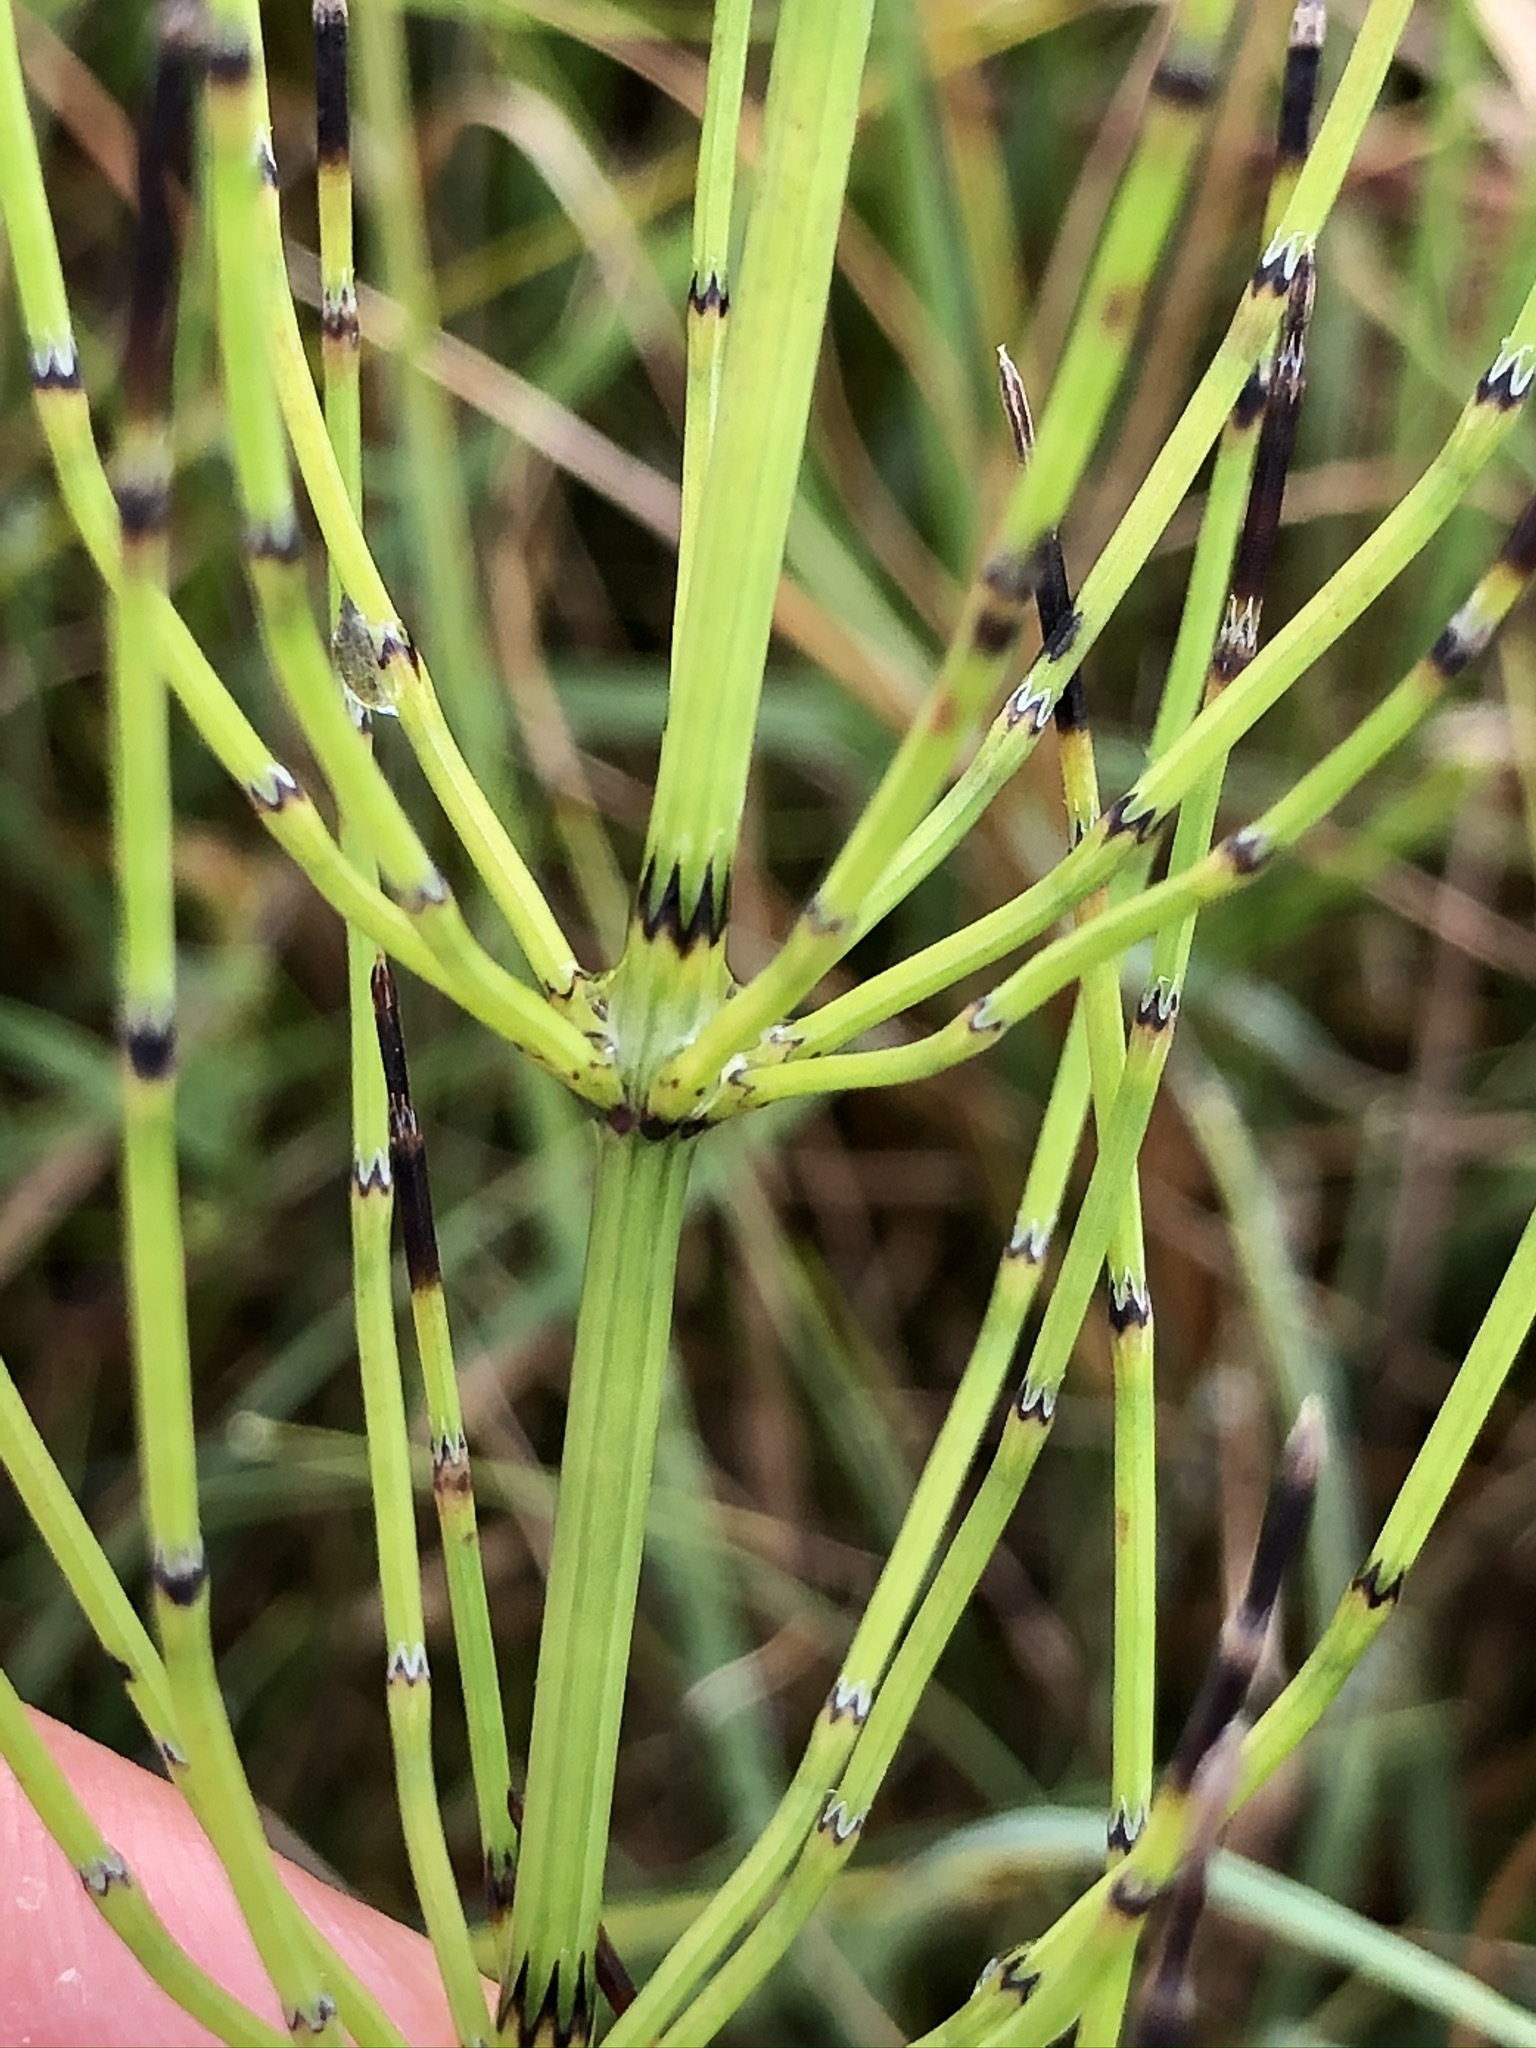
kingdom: Plantae
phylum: Tracheophyta
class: Polypodiopsida
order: Equisetales
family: Equisetaceae
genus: Equisetum
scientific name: Equisetum palustre
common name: Marsh horsetail
